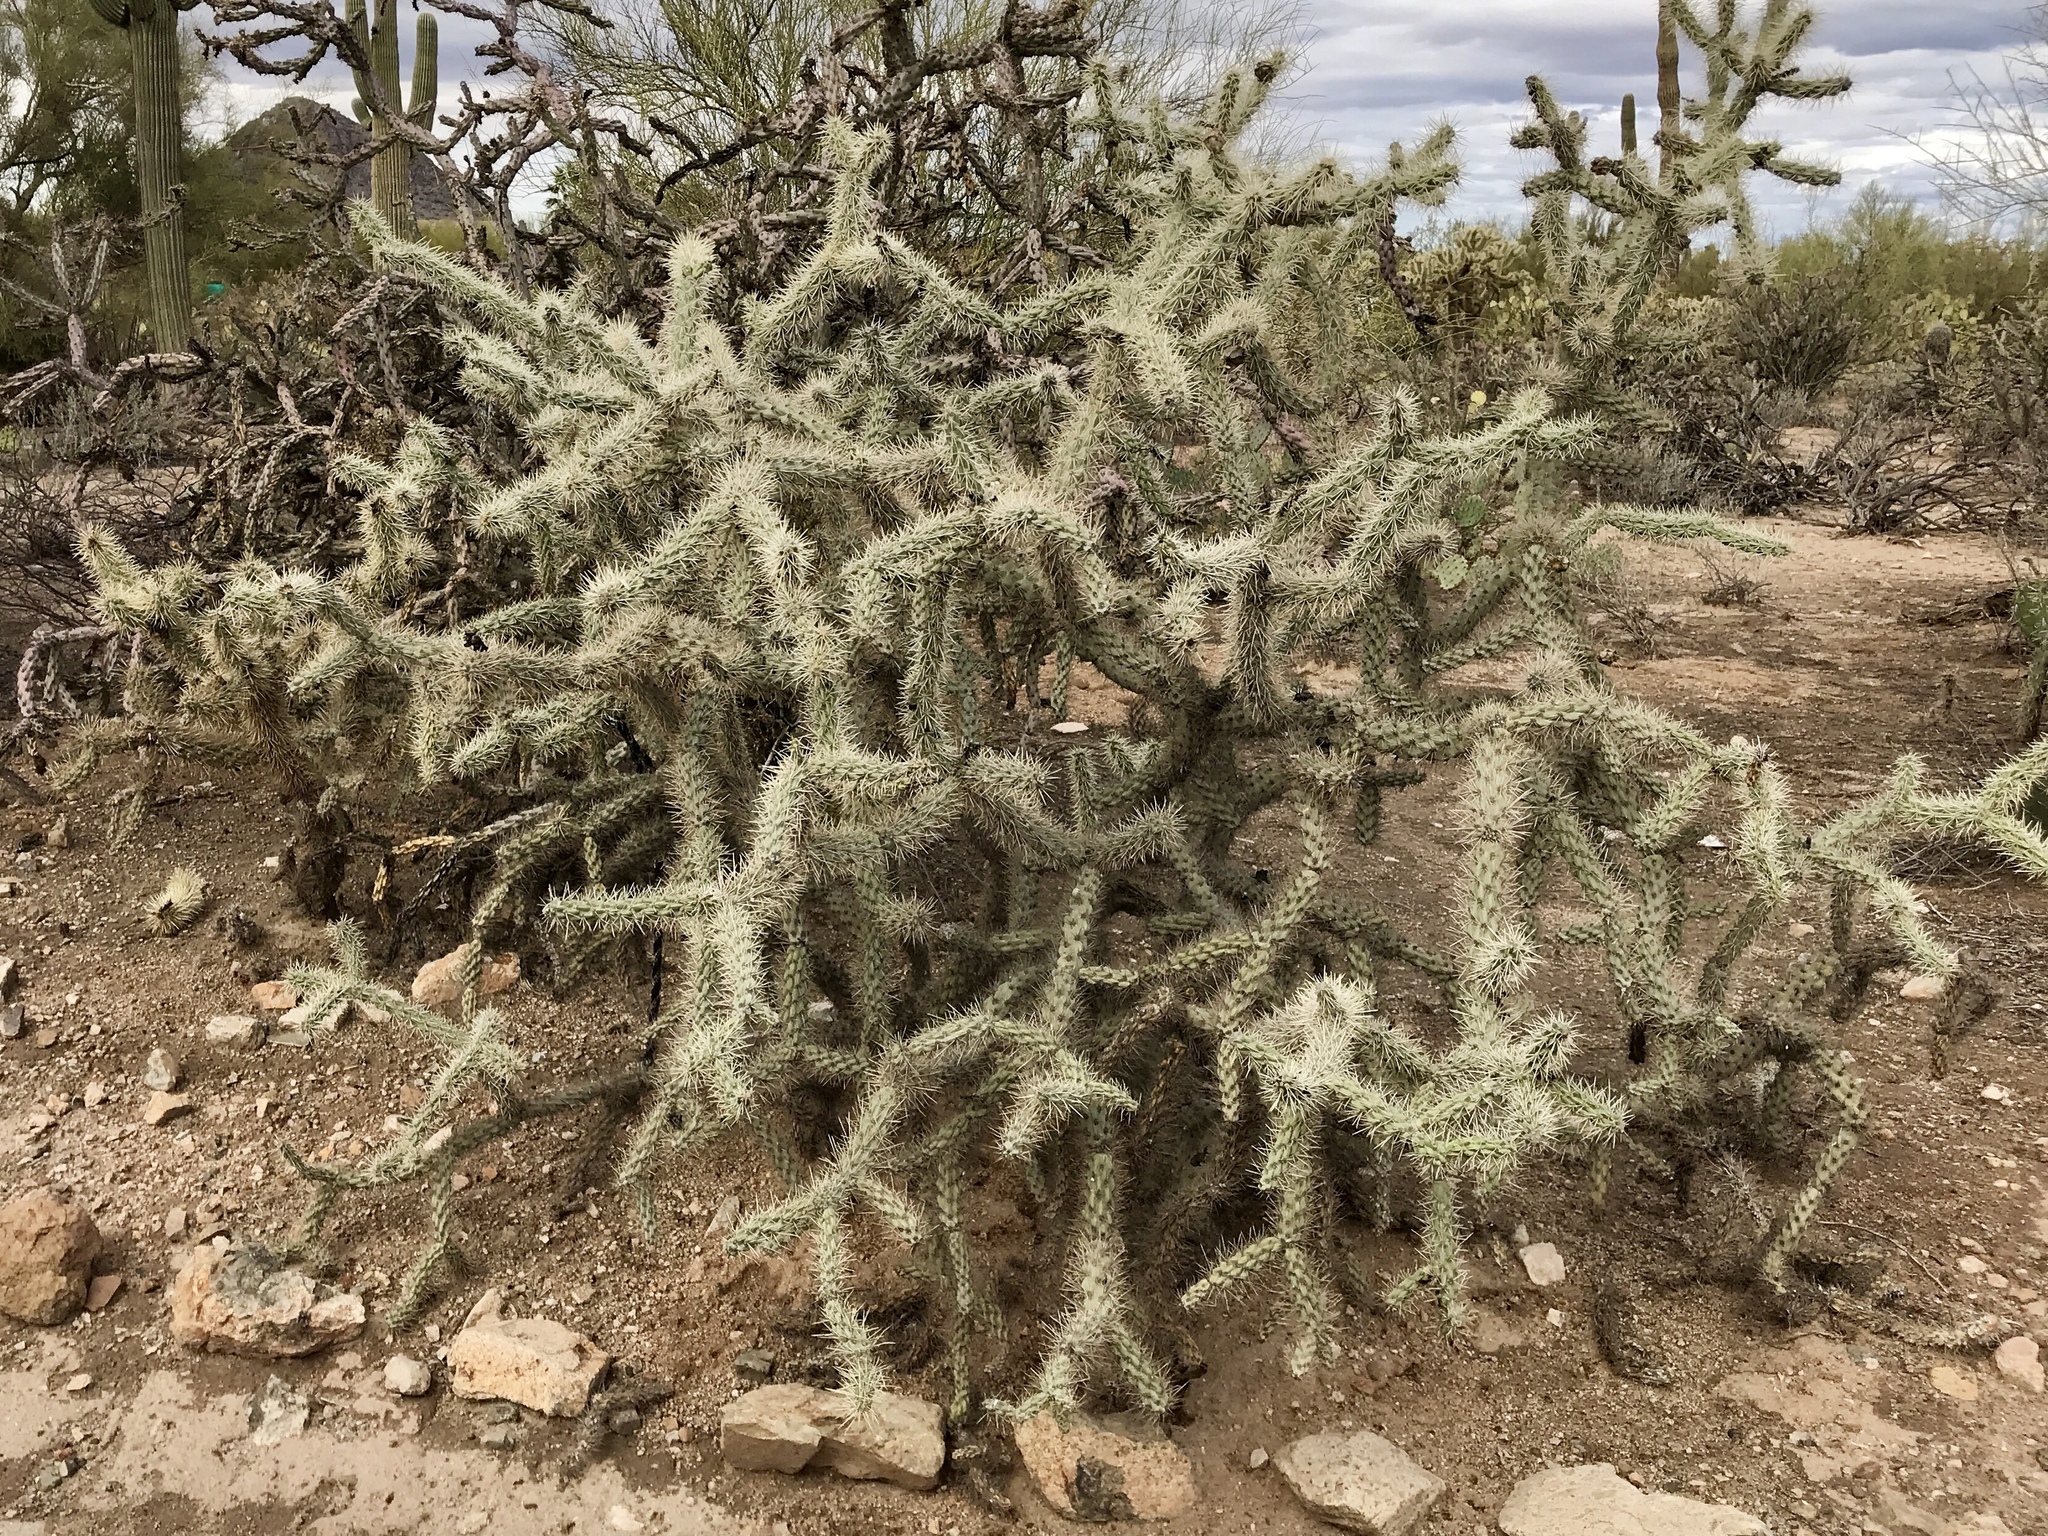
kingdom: Plantae
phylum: Tracheophyta
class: Magnoliopsida
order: Caryophyllales
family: Cactaceae
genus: Cylindropuntia
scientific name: Cylindropuntia imbricata
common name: Candelabrum cactus
